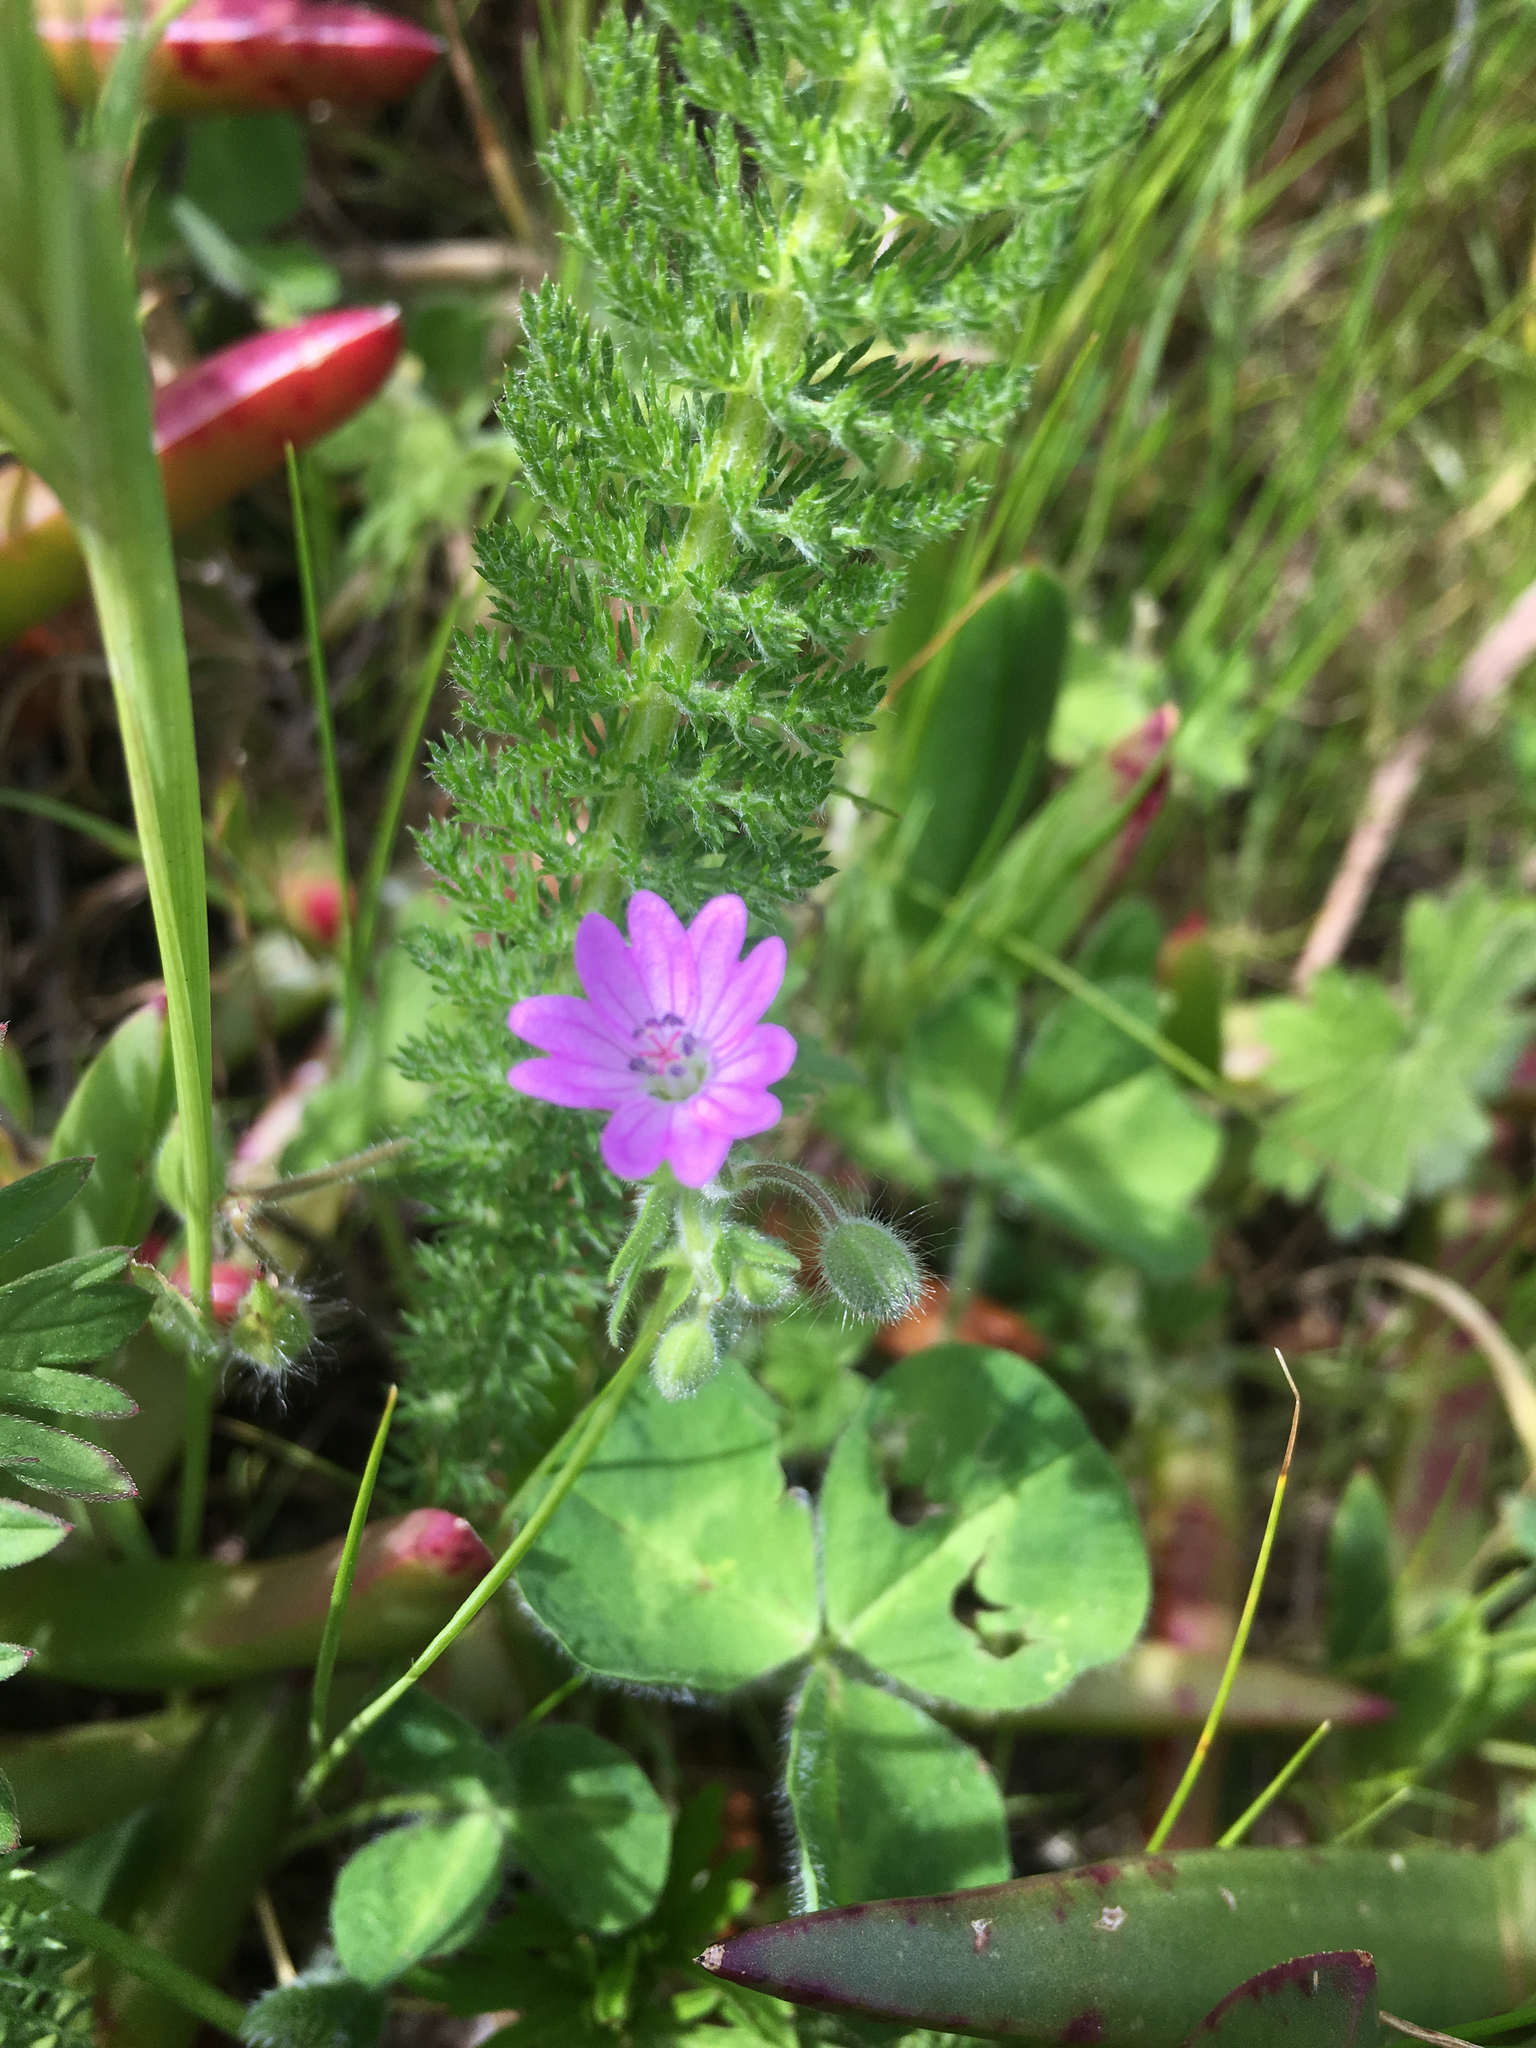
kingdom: Plantae
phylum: Tracheophyta
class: Magnoliopsida
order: Geraniales
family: Geraniaceae
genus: Geranium
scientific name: Geranium molle
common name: Dove's-foot crane's-bill
